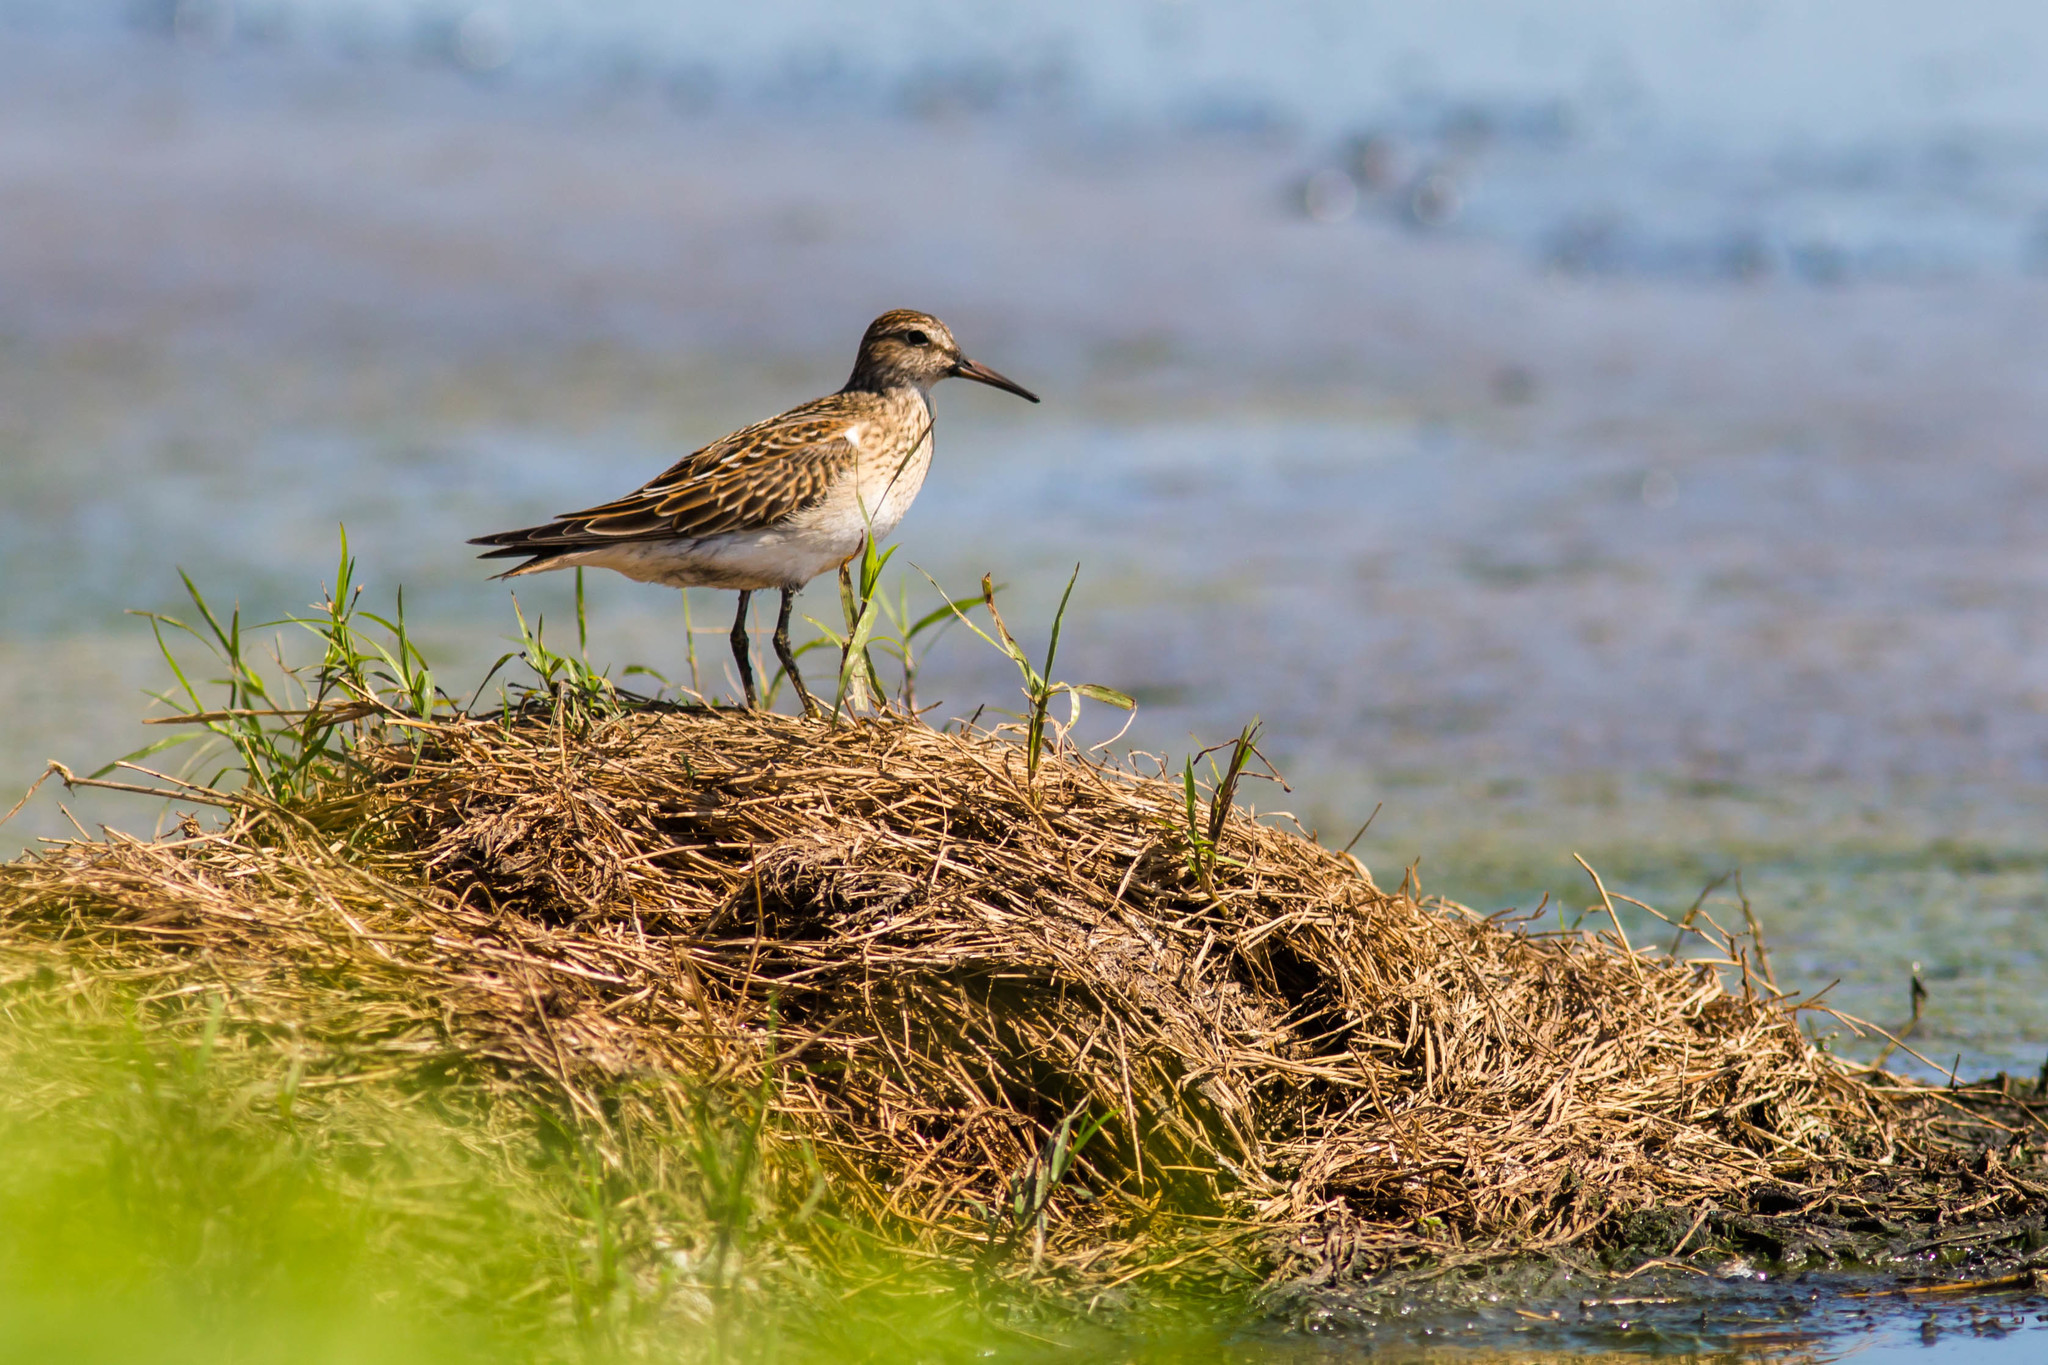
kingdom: Animalia
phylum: Chordata
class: Aves
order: Charadriiformes
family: Scolopacidae
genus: Calidris
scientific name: Calidris melanotos
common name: Pectoral sandpiper
